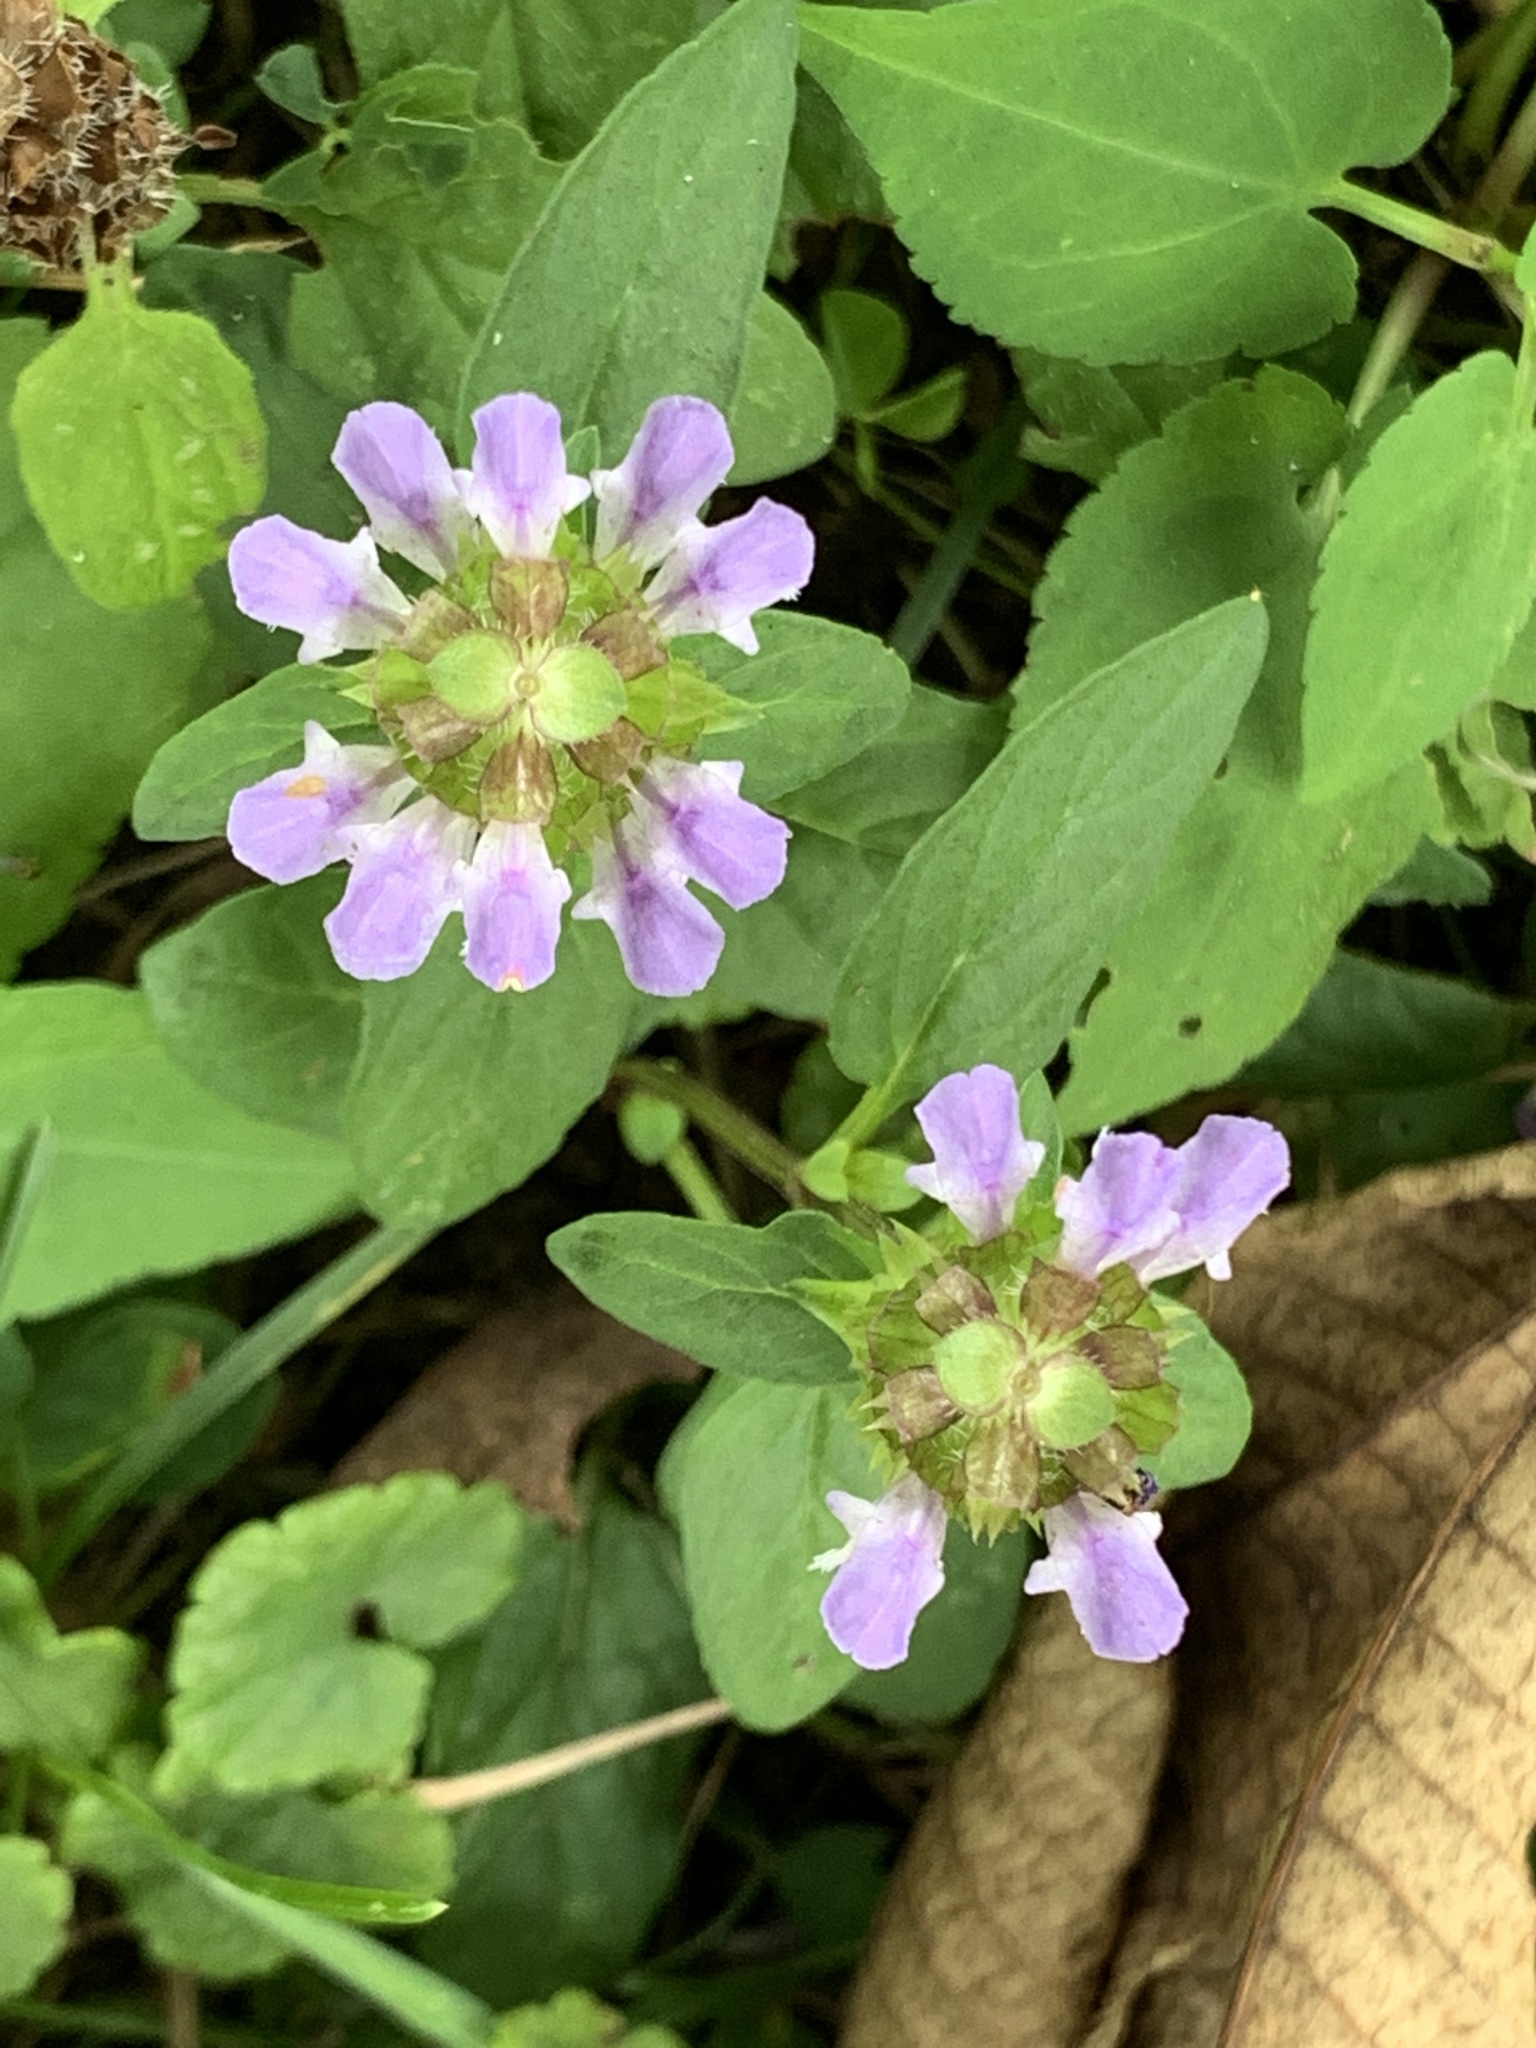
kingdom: Plantae
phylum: Tracheophyta
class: Magnoliopsida
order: Lamiales
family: Lamiaceae
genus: Prunella
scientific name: Prunella vulgaris
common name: Heal-all
